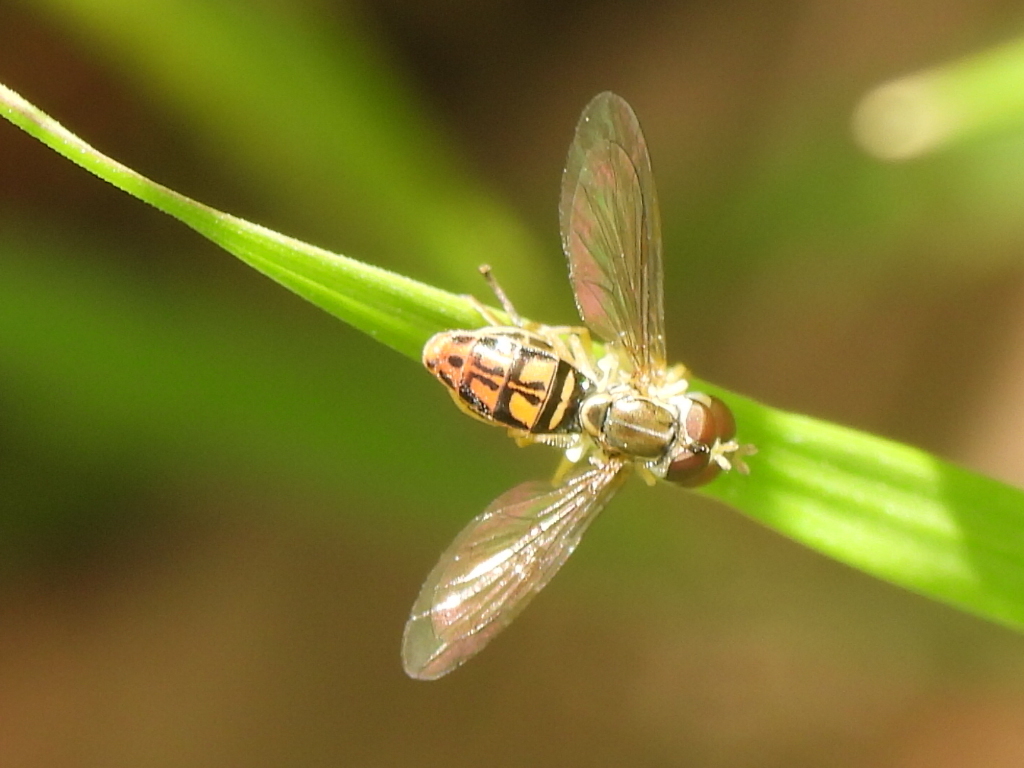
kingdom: Animalia
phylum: Arthropoda
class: Insecta
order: Diptera
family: Syrphidae
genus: Toxomerus
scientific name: Toxomerus marginatus
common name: Syrphid fly
